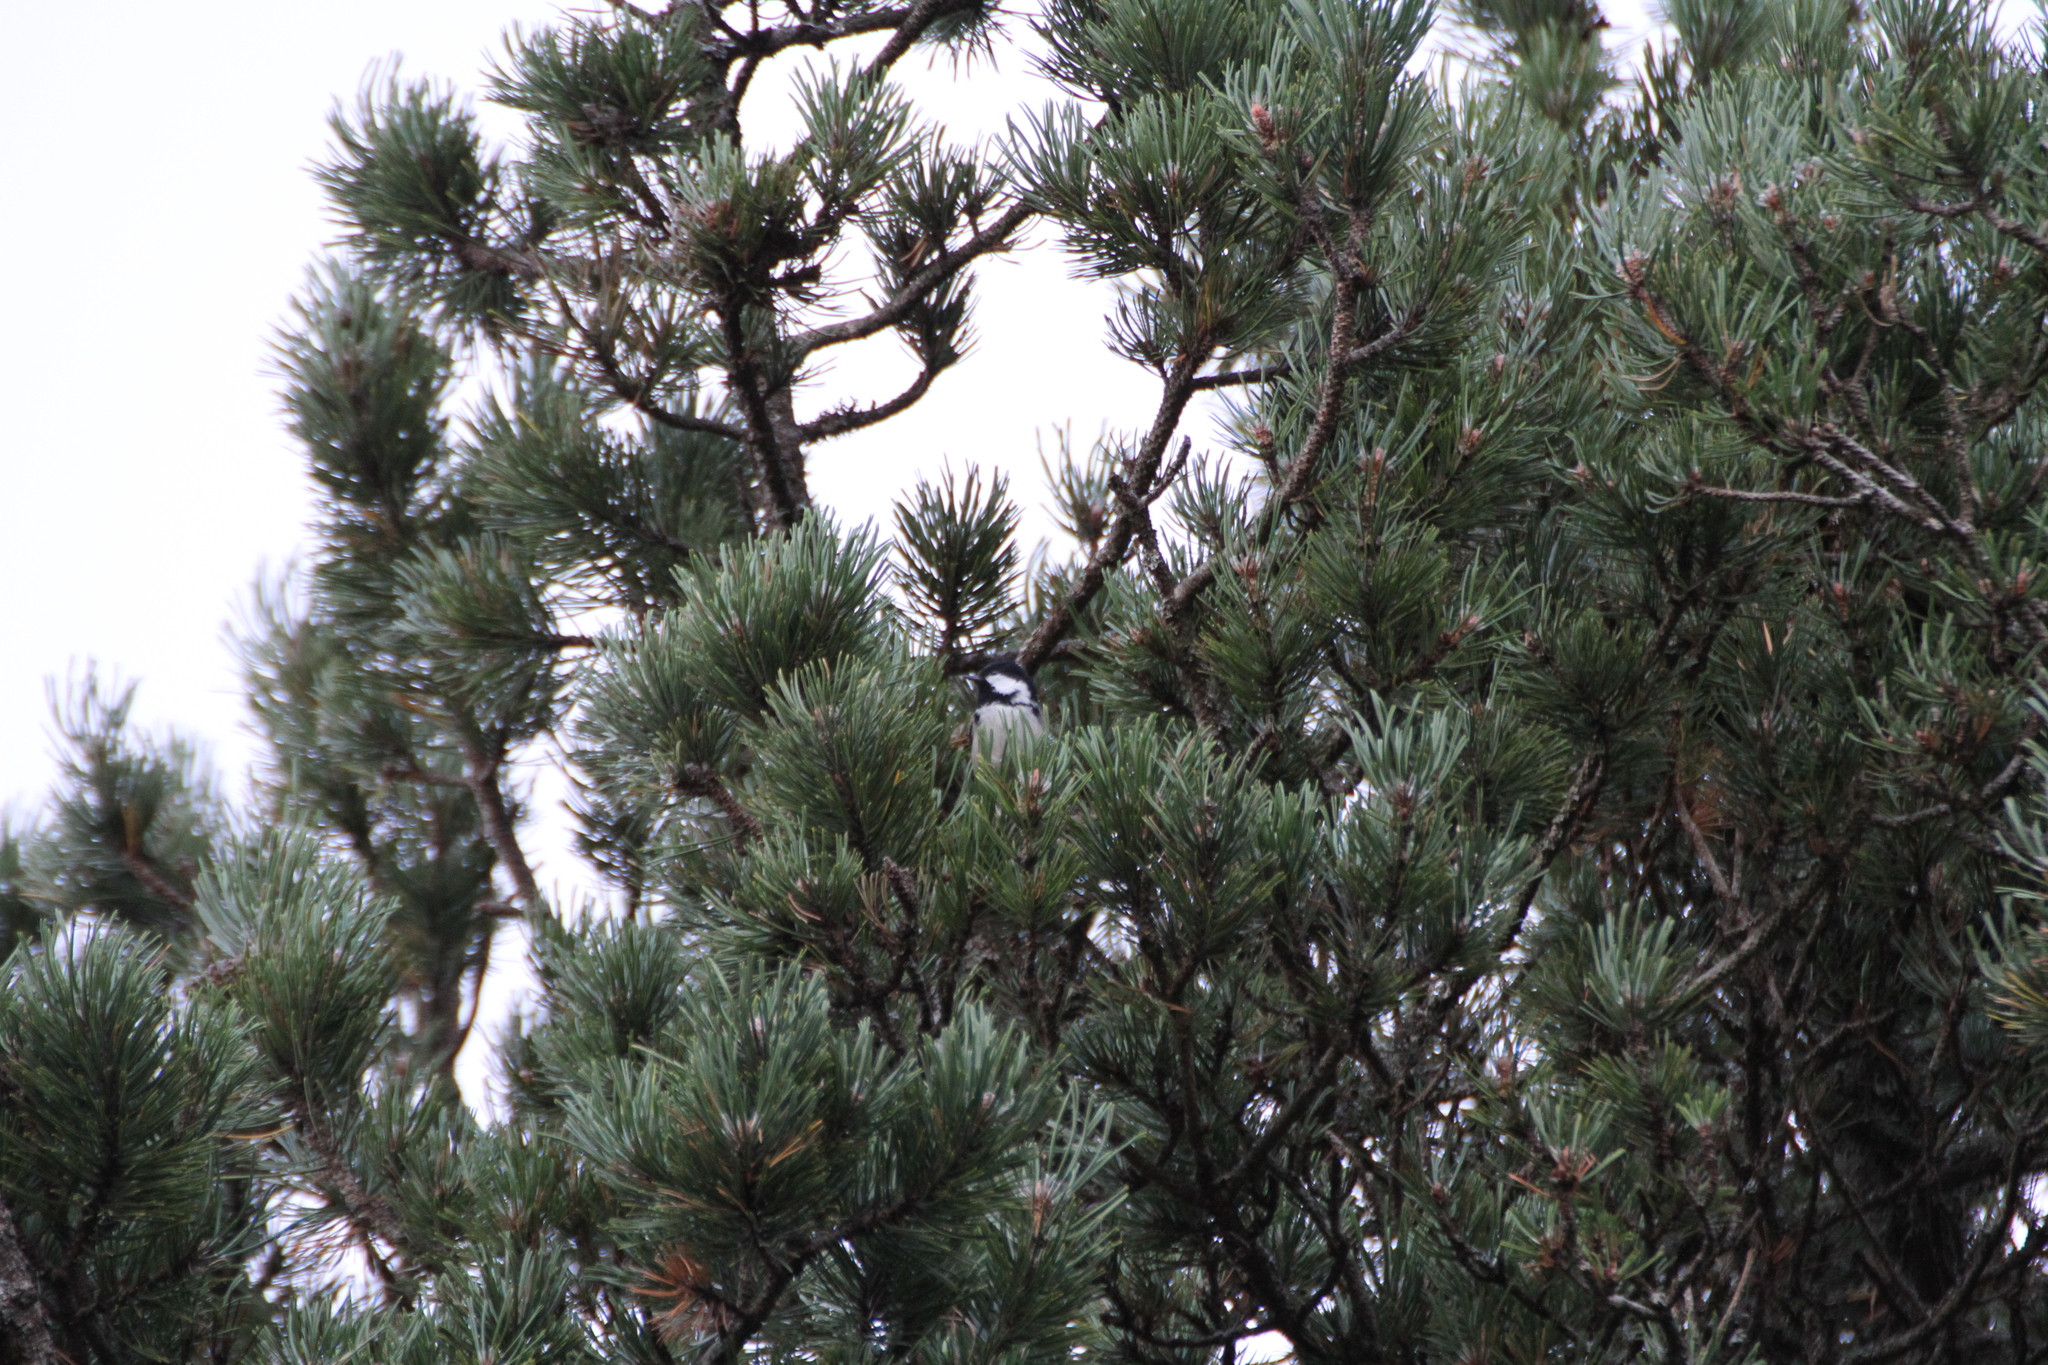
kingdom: Animalia
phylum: Chordata
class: Aves
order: Passeriformes
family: Paridae
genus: Periparus
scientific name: Periparus ater
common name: Coal tit
